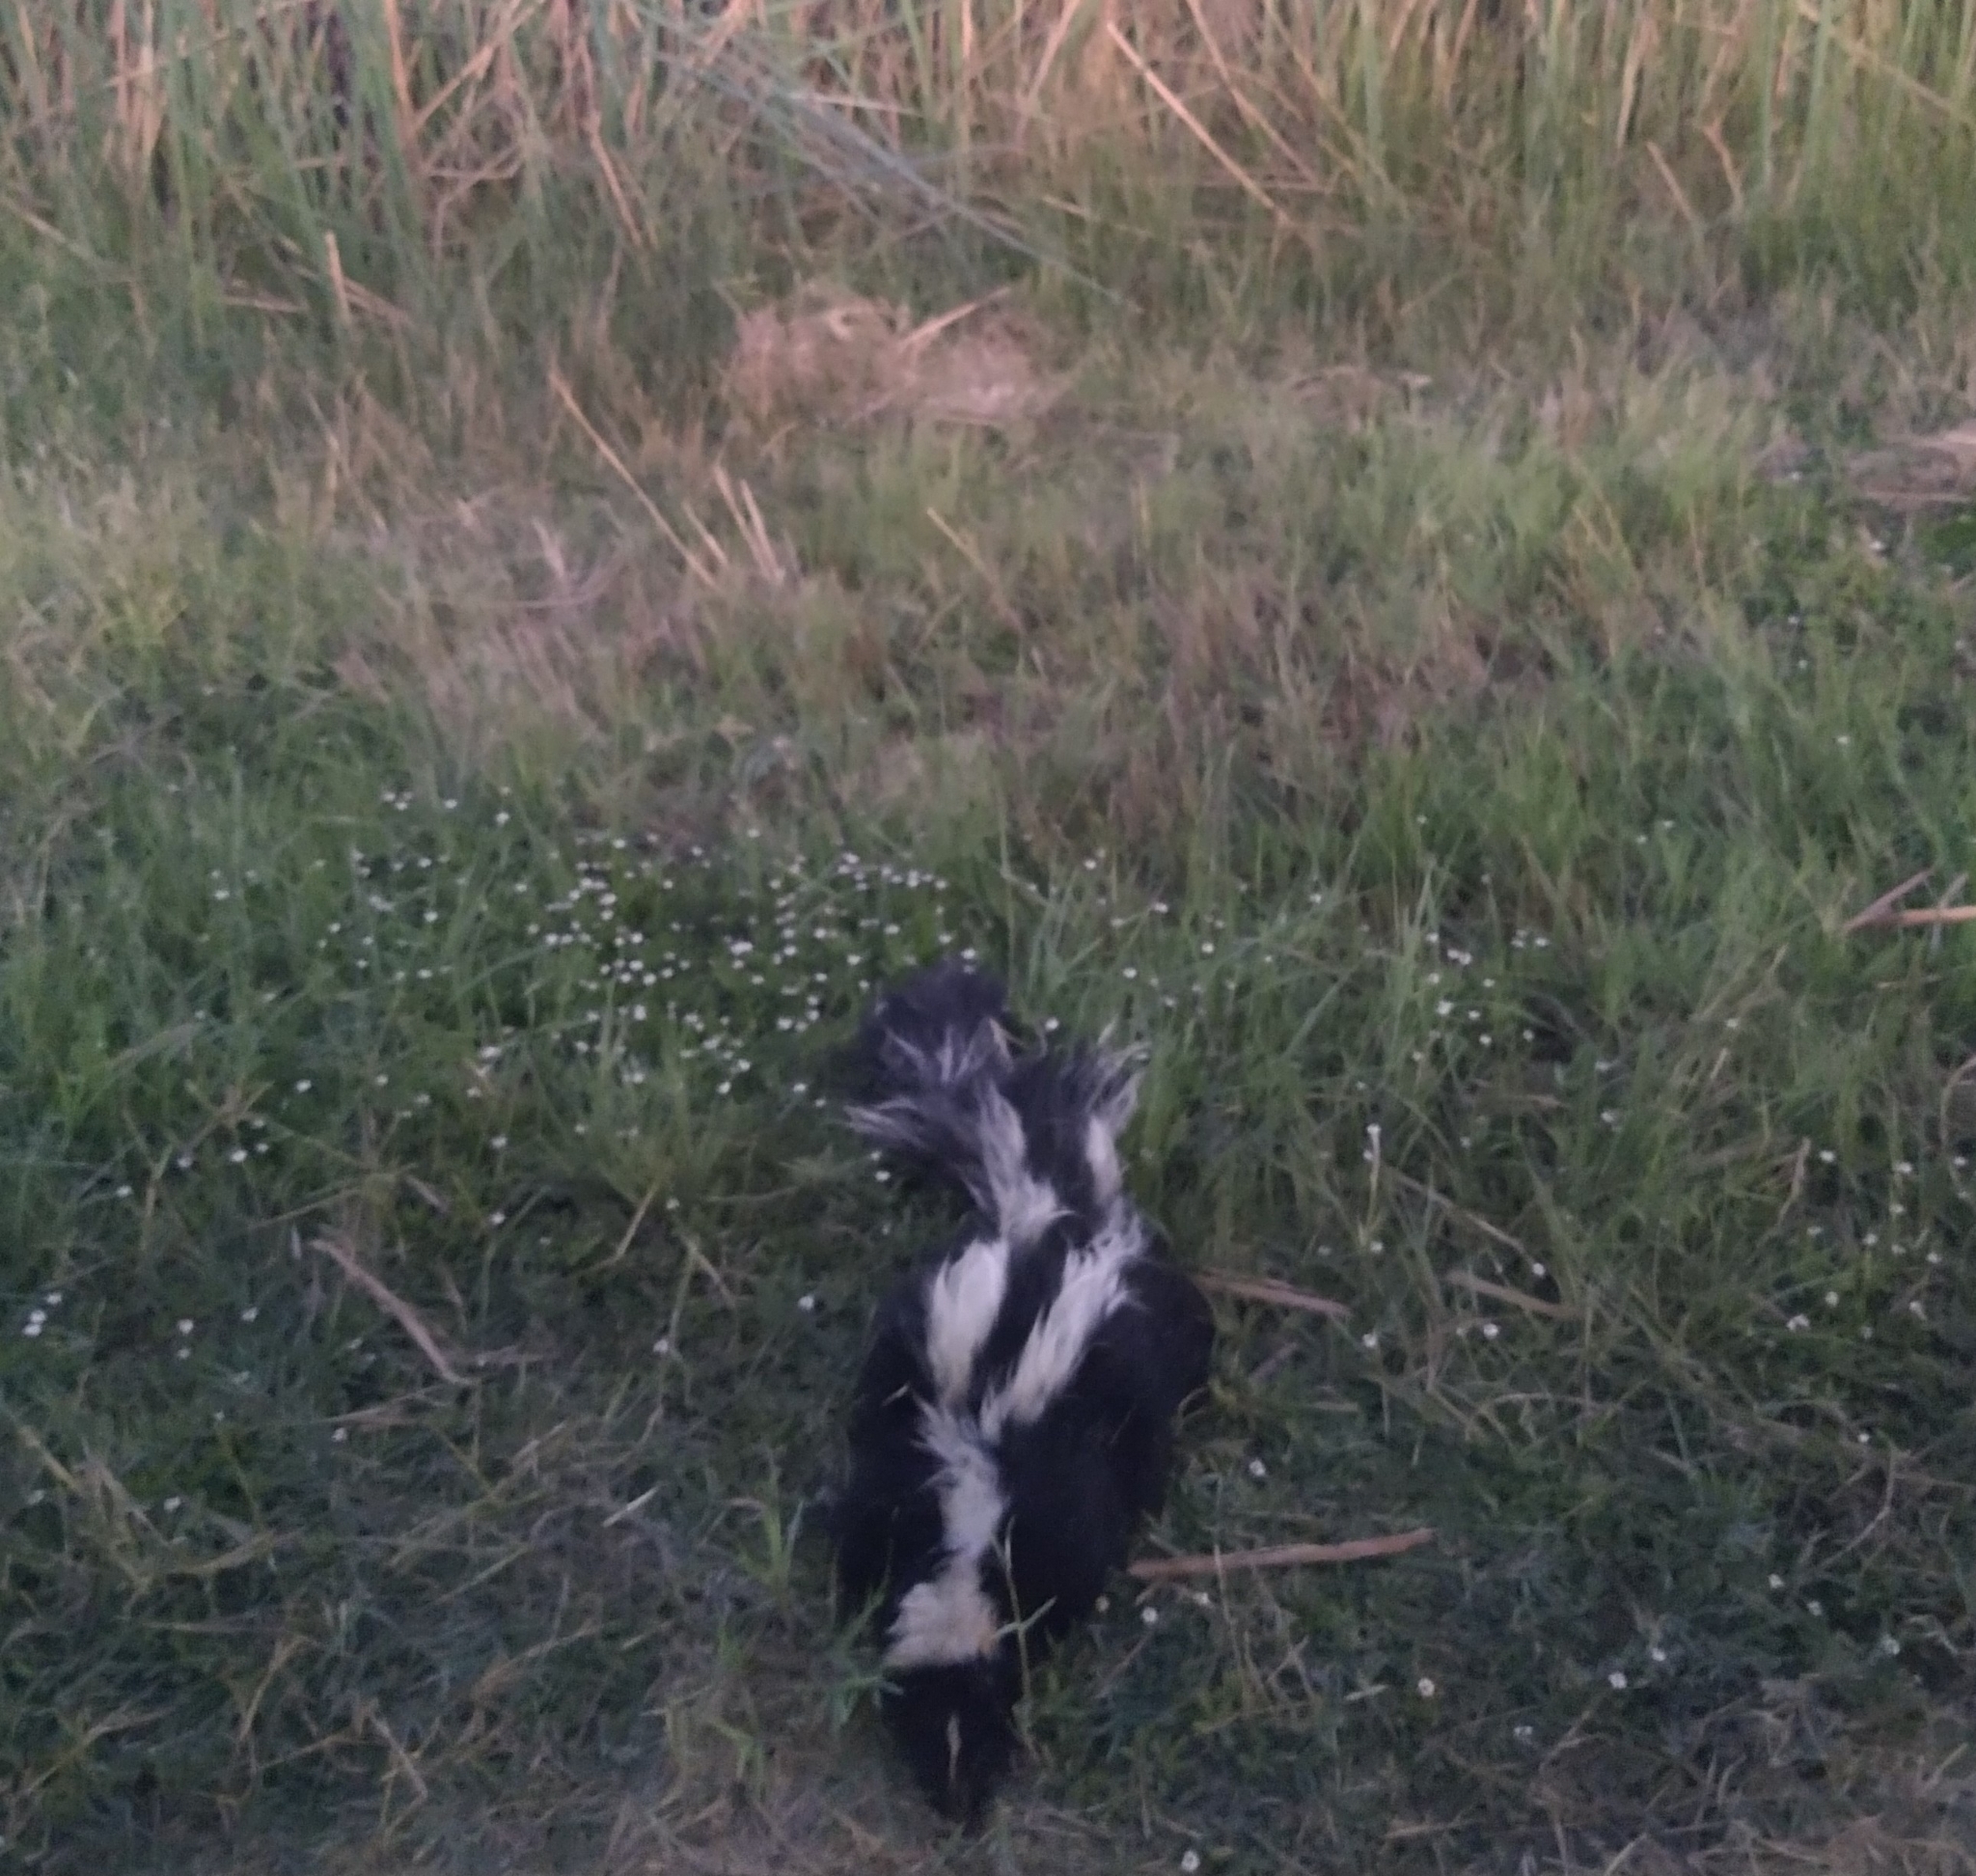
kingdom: Animalia
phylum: Chordata
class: Mammalia
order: Carnivora
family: Mephitidae
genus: Mephitis
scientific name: Mephitis mephitis
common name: Striped skunk
